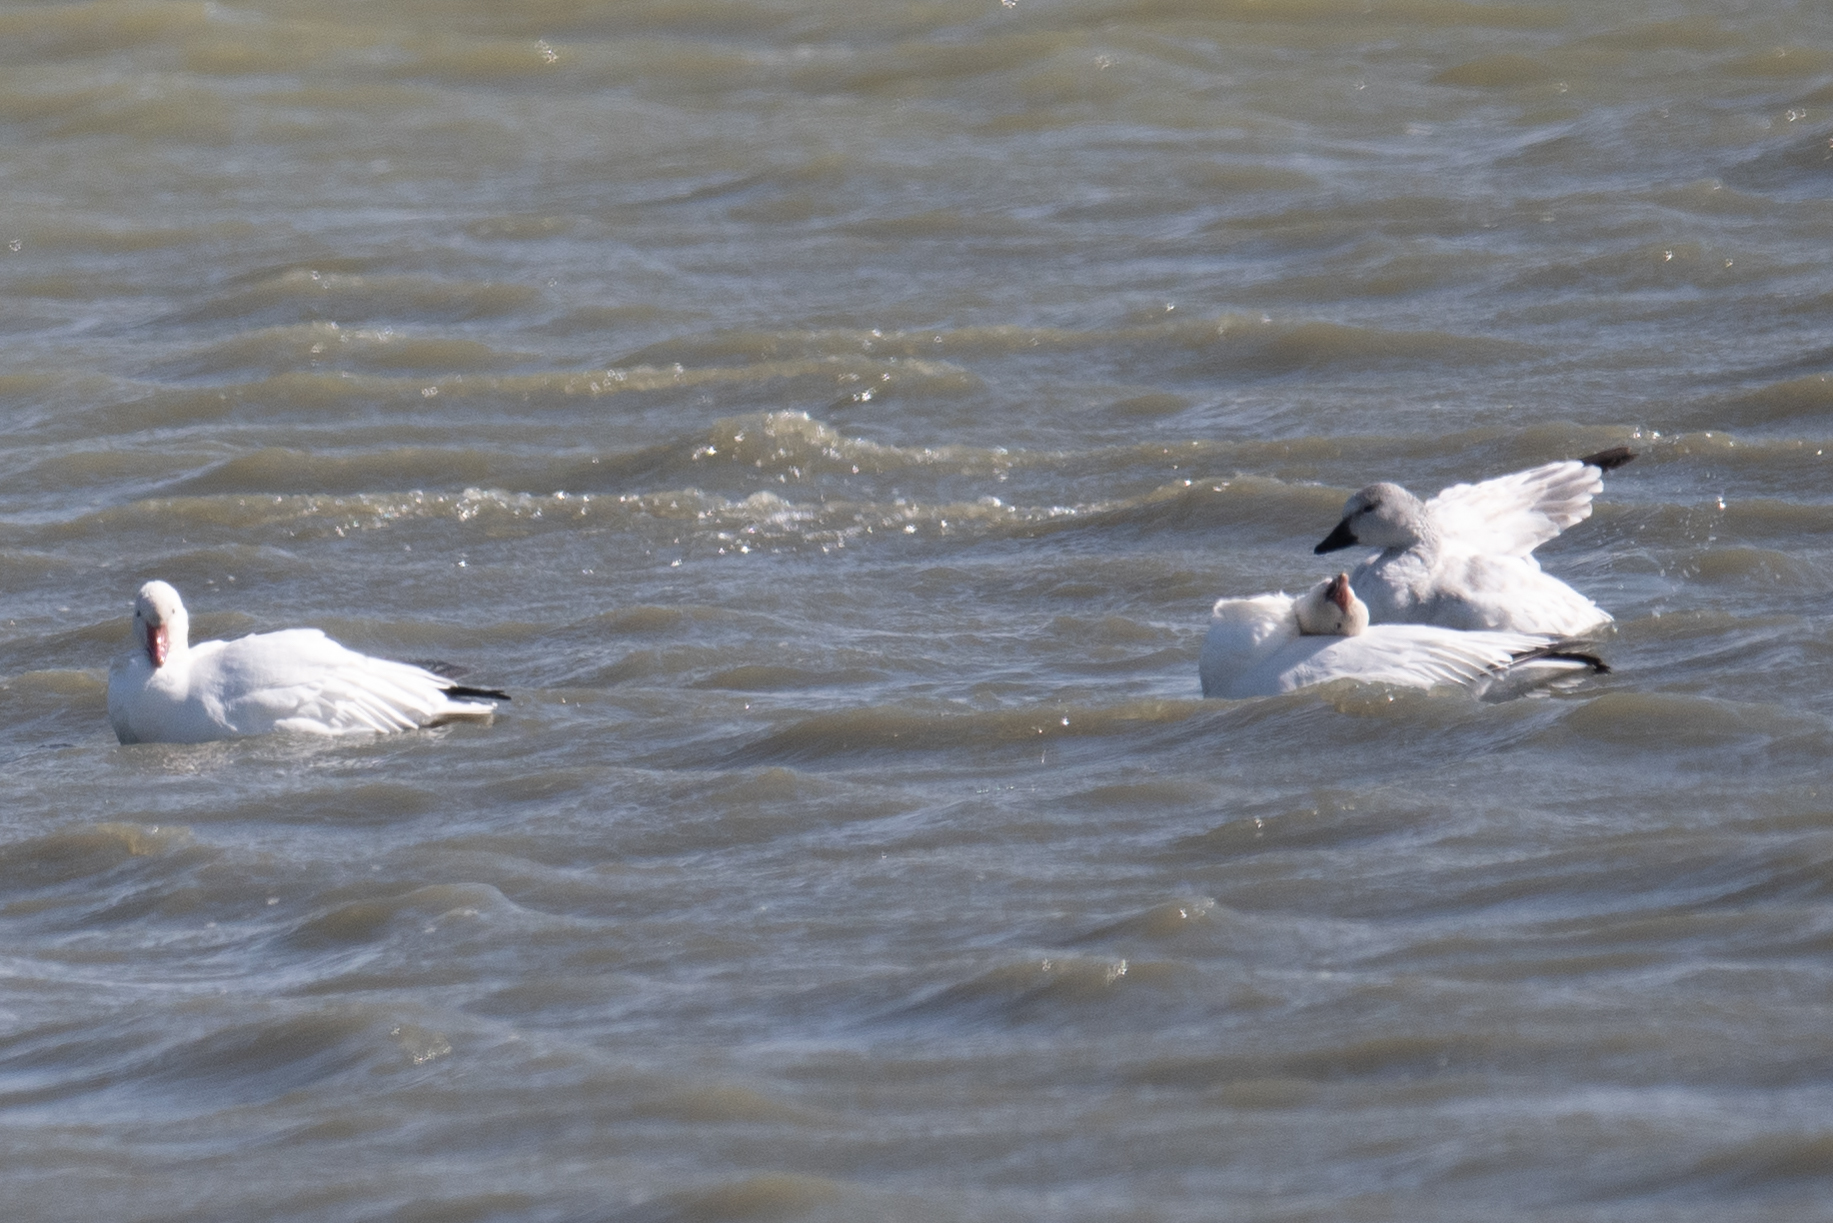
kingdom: Animalia
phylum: Chordata
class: Aves
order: Anseriformes
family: Anatidae
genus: Anser
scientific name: Anser caerulescens
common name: Snow goose
